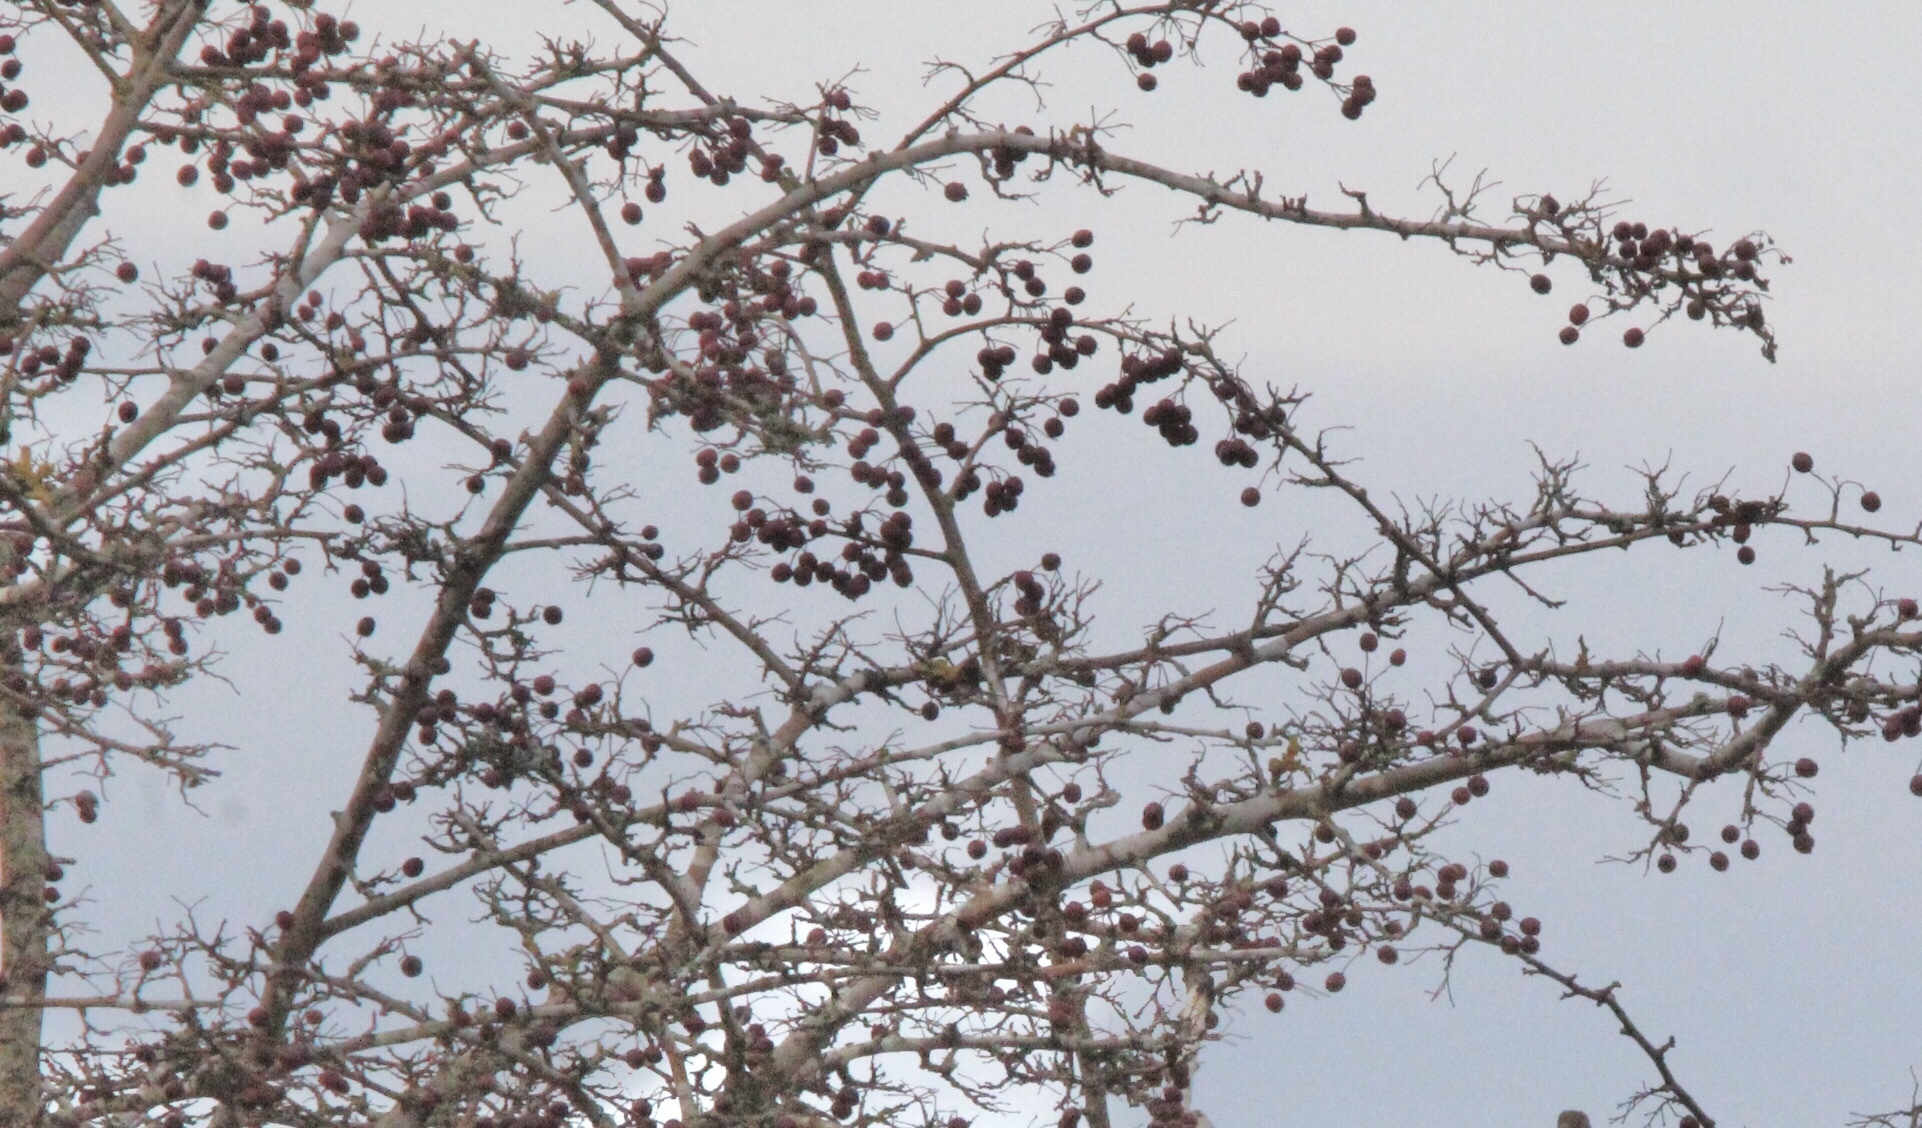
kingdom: Plantae
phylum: Tracheophyta
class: Magnoliopsida
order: Rosales
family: Rosaceae
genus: Crataegus
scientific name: Crataegus monogyna
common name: Hawthorn
